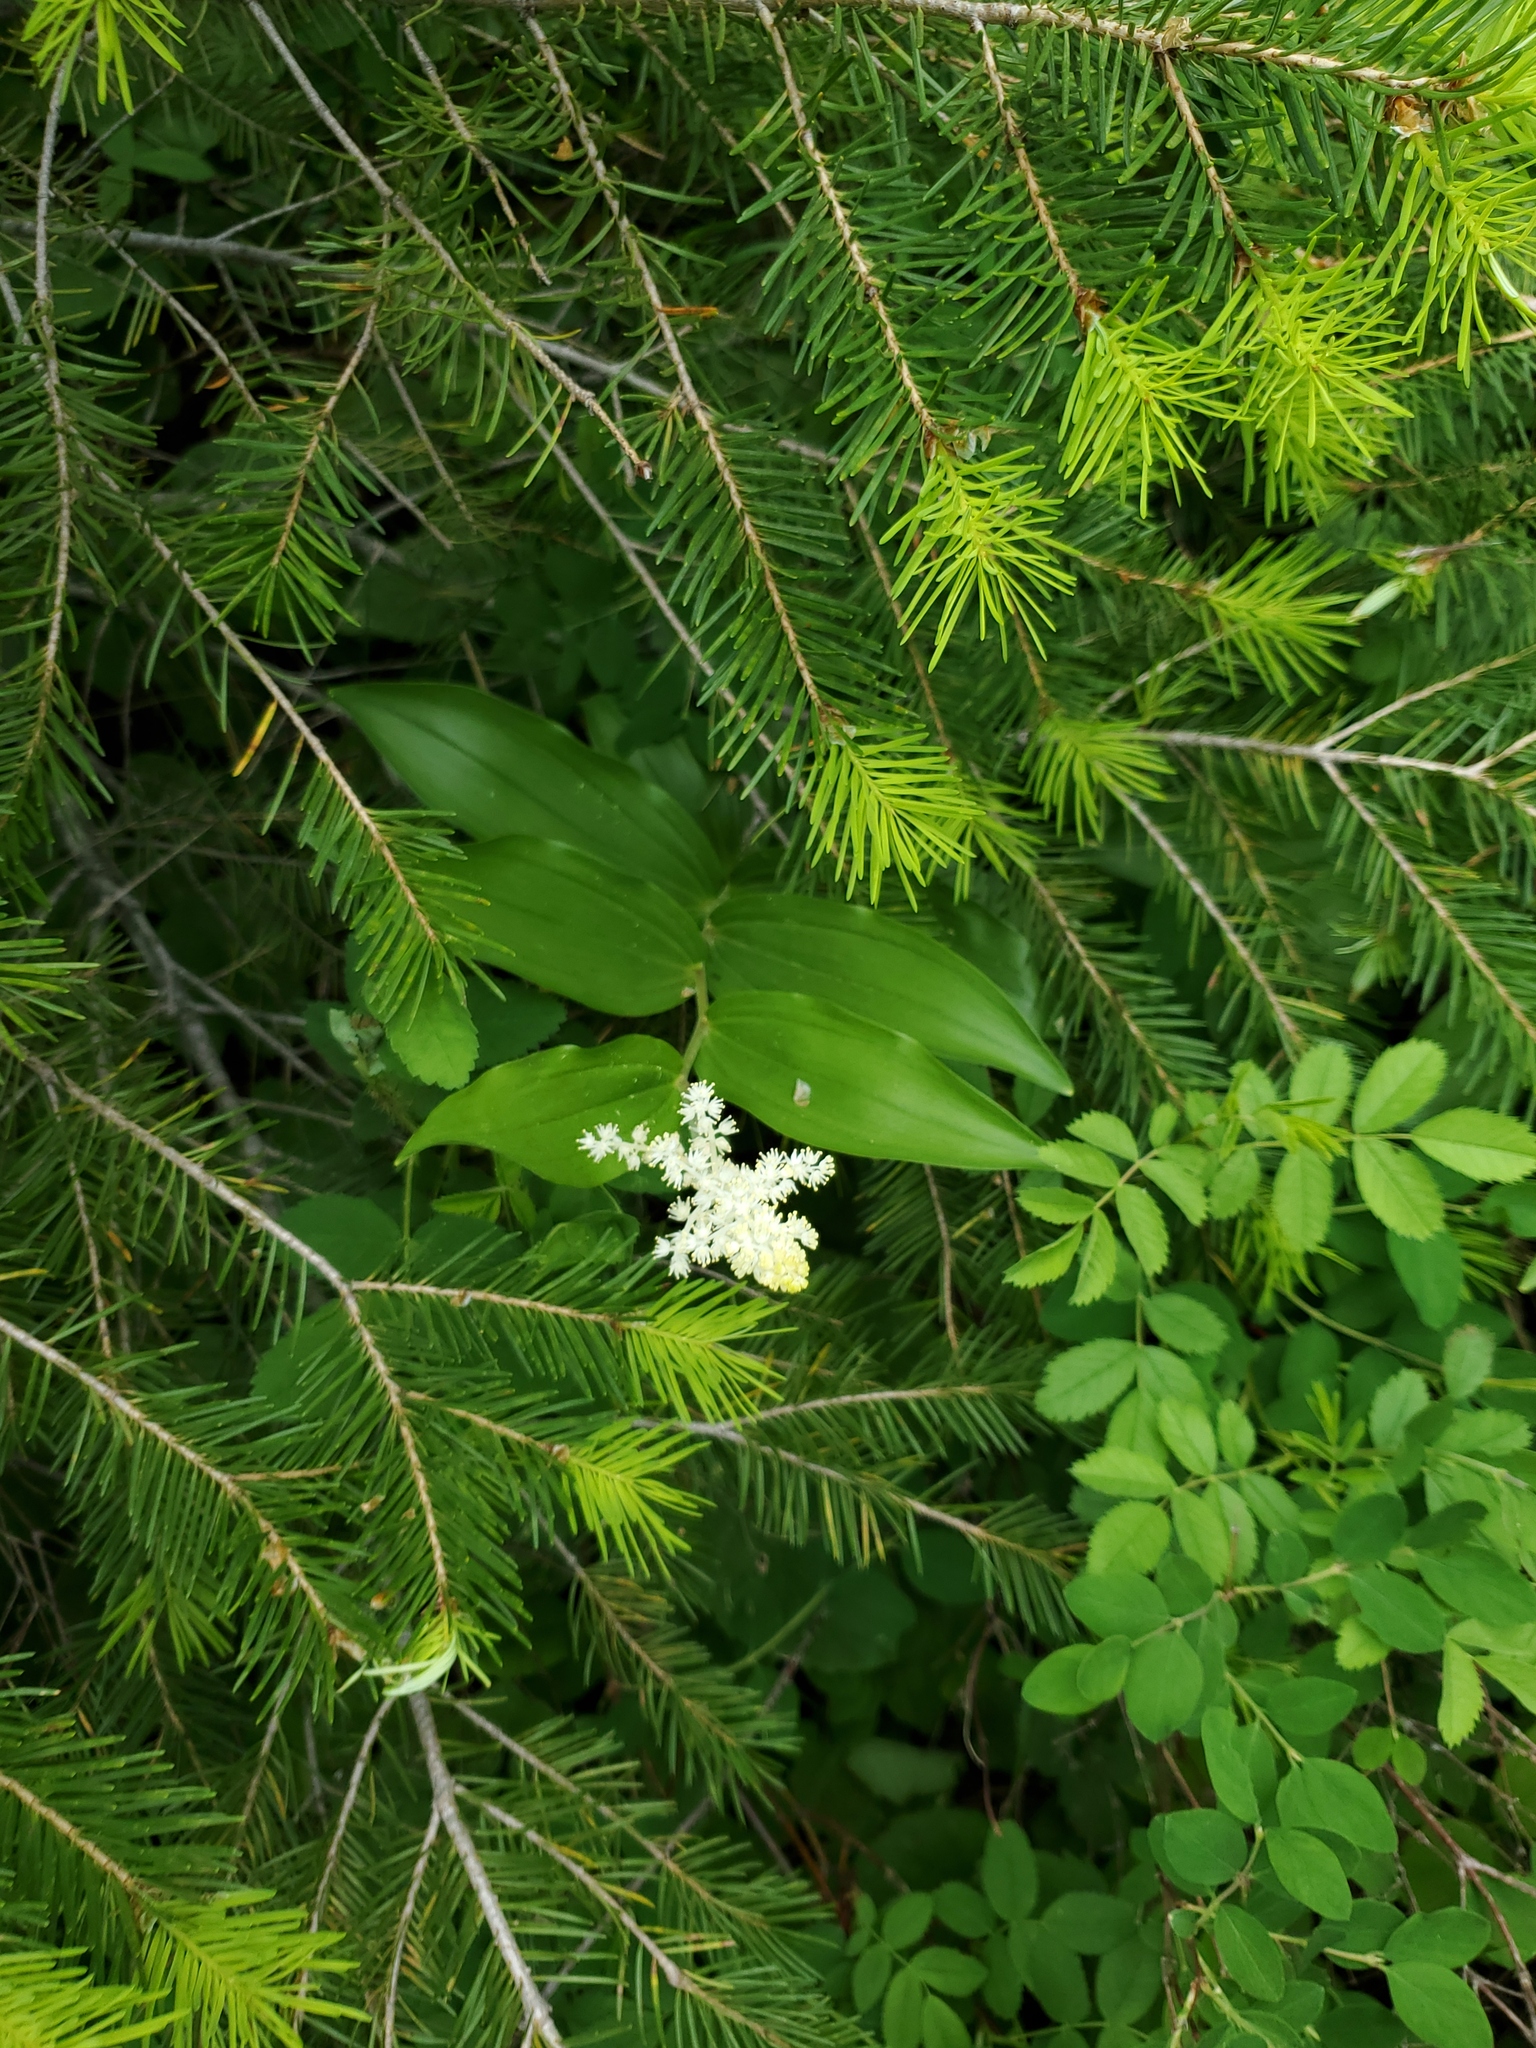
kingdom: Plantae
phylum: Tracheophyta
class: Liliopsida
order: Asparagales
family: Asparagaceae
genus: Maianthemum
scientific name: Maianthemum racemosum
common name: False spikenard
